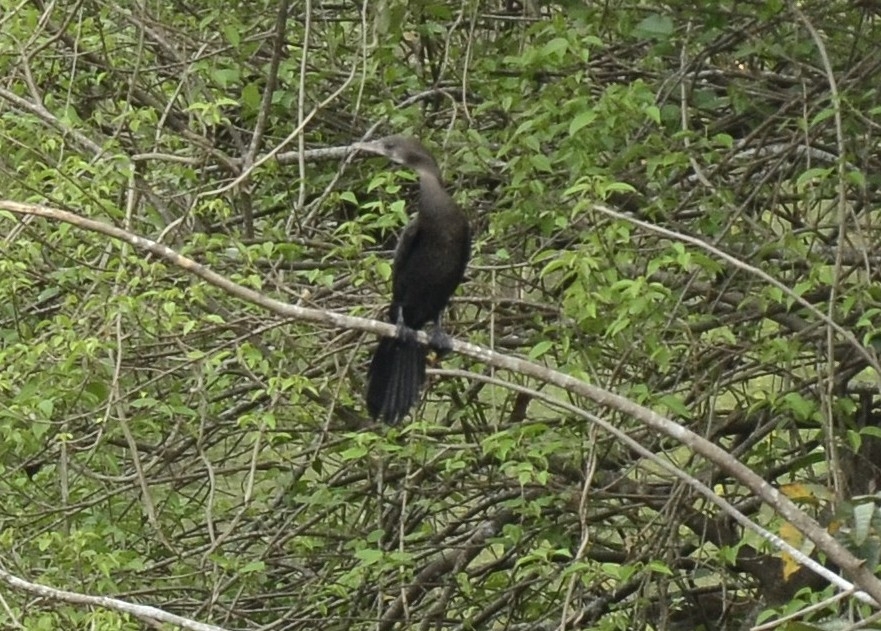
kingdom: Animalia
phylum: Chordata
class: Aves
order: Suliformes
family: Phalacrocoracidae
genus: Microcarbo
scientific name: Microcarbo niger
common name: Little cormorant
